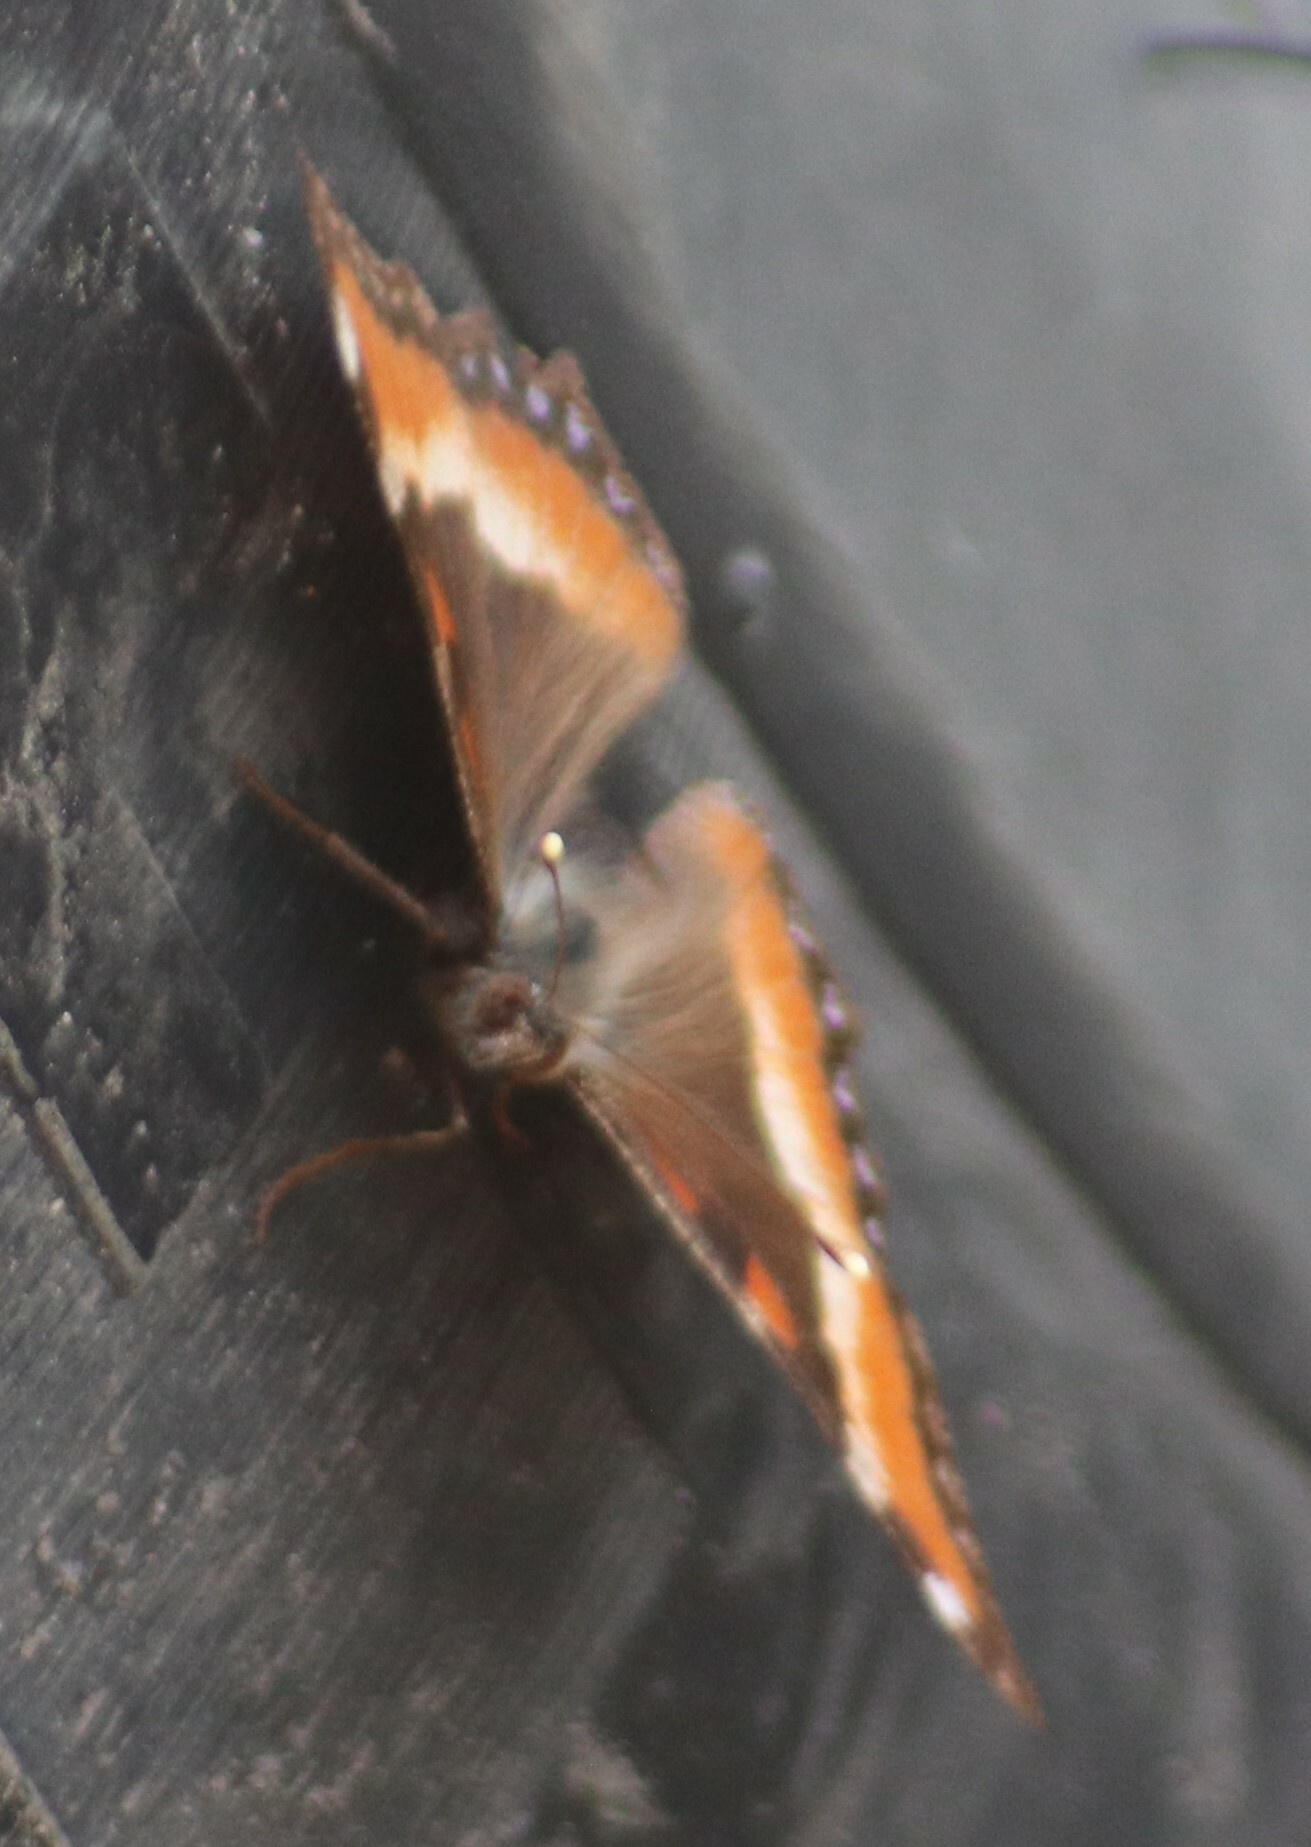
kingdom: Animalia
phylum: Arthropoda
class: Insecta
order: Lepidoptera
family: Nymphalidae
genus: Aglais
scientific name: Aglais milberti
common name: Milbert's tortoiseshell
